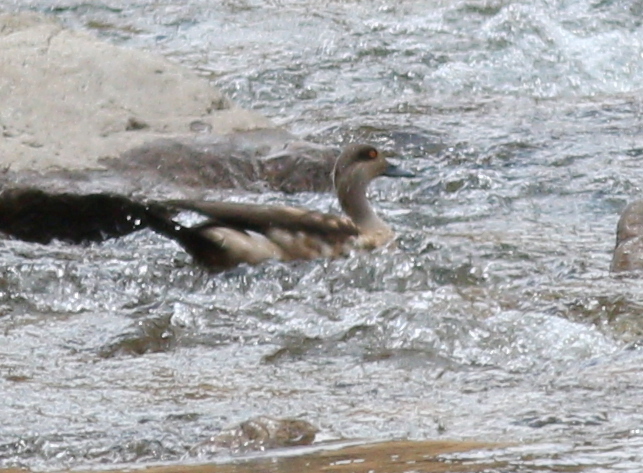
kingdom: Animalia
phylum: Chordata
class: Aves
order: Anseriformes
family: Anatidae
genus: Lophonetta
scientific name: Lophonetta specularioides
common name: Crested duck
